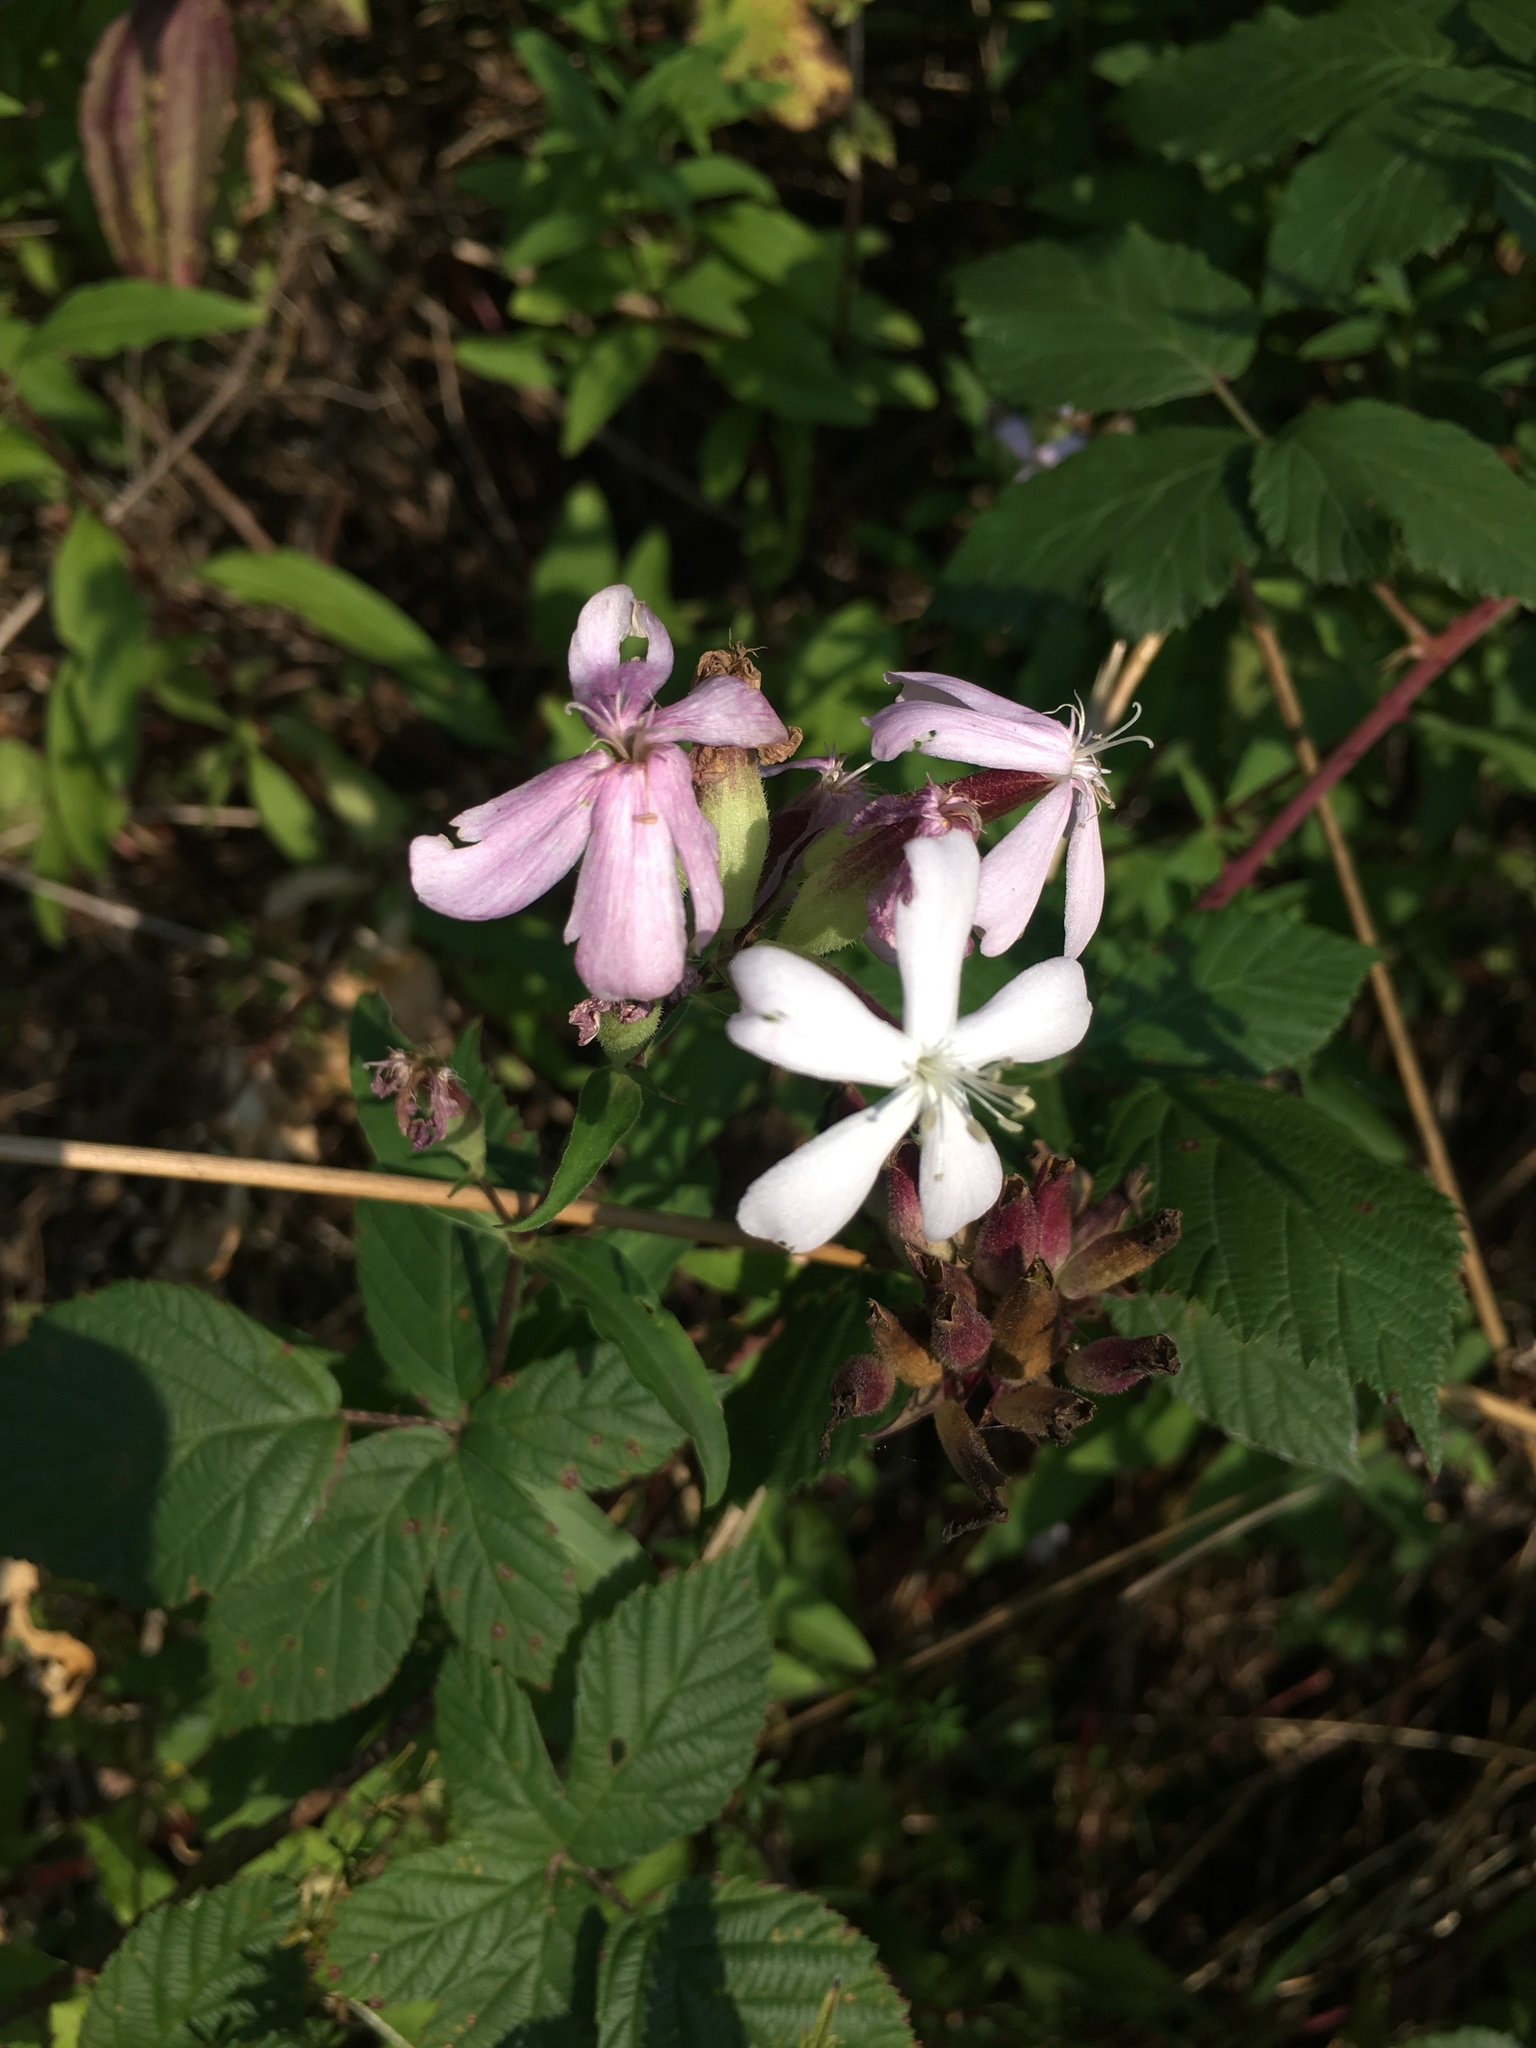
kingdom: Plantae
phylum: Tracheophyta
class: Magnoliopsida
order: Caryophyllales
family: Caryophyllaceae
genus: Saponaria
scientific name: Saponaria officinalis
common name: Soapwort
